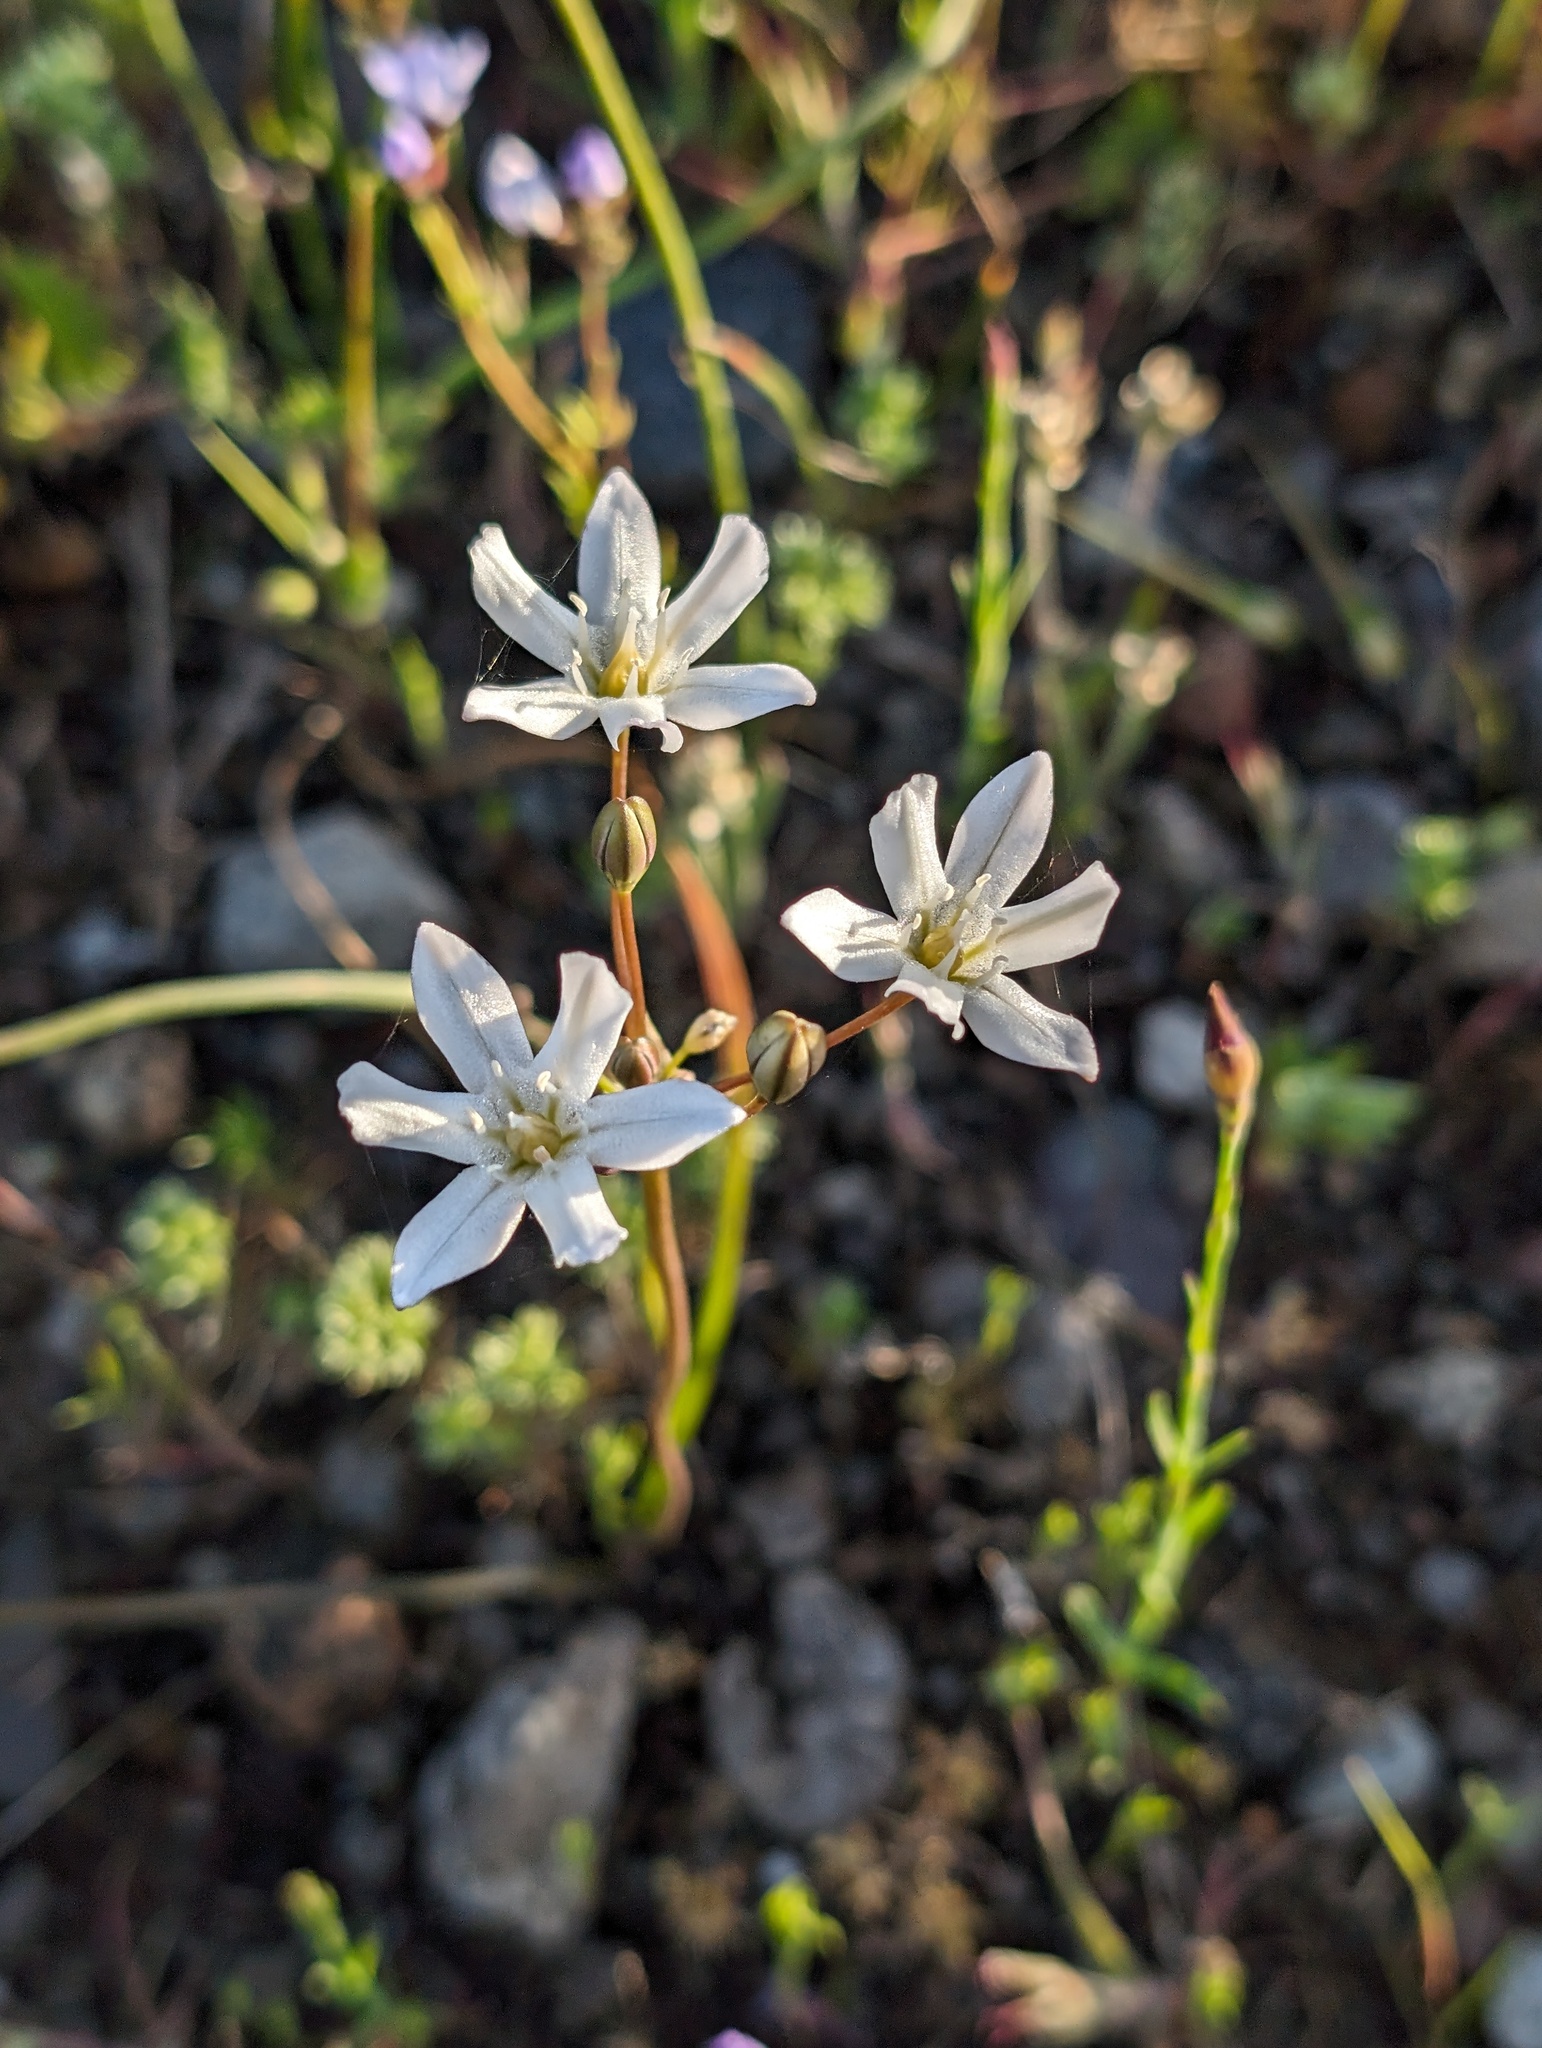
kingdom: Plantae
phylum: Tracheophyta
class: Liliopsida
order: Asparagales
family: Asparagaceae
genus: Triteleia
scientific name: Triteleia lilacina
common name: Lilac-flower wild hyacinth
